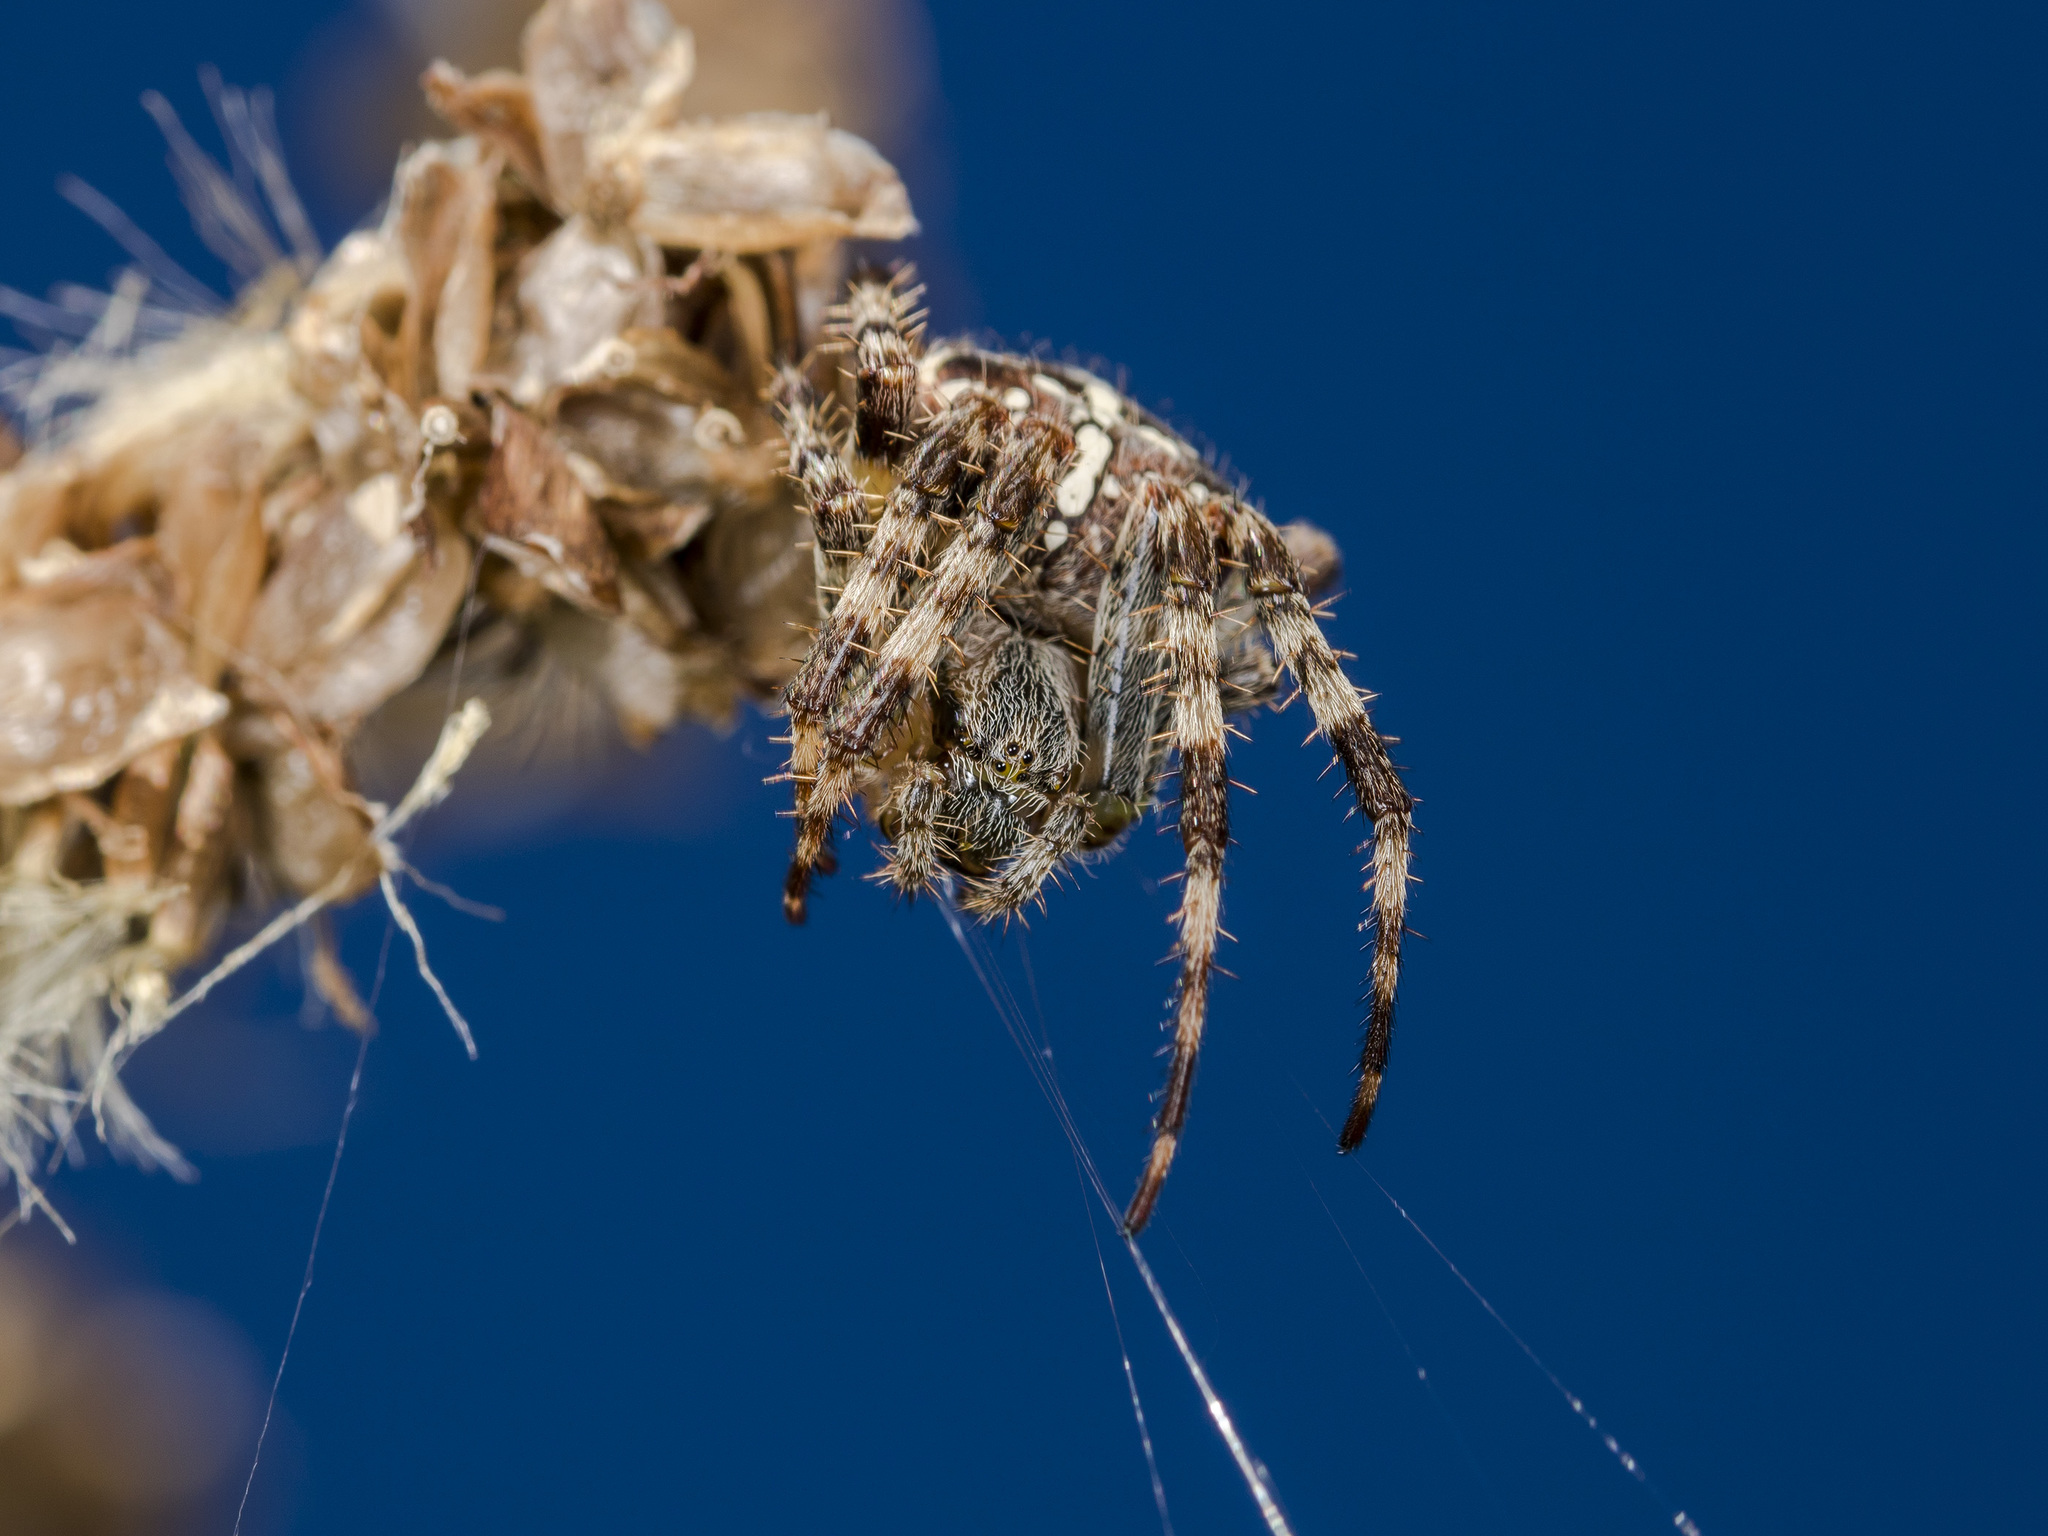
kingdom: Animalia
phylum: Arthropoda
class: Arachnida
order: Araneae
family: Araneidae
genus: Araneus
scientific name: Araneus diadematus
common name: Cross orbweaver
